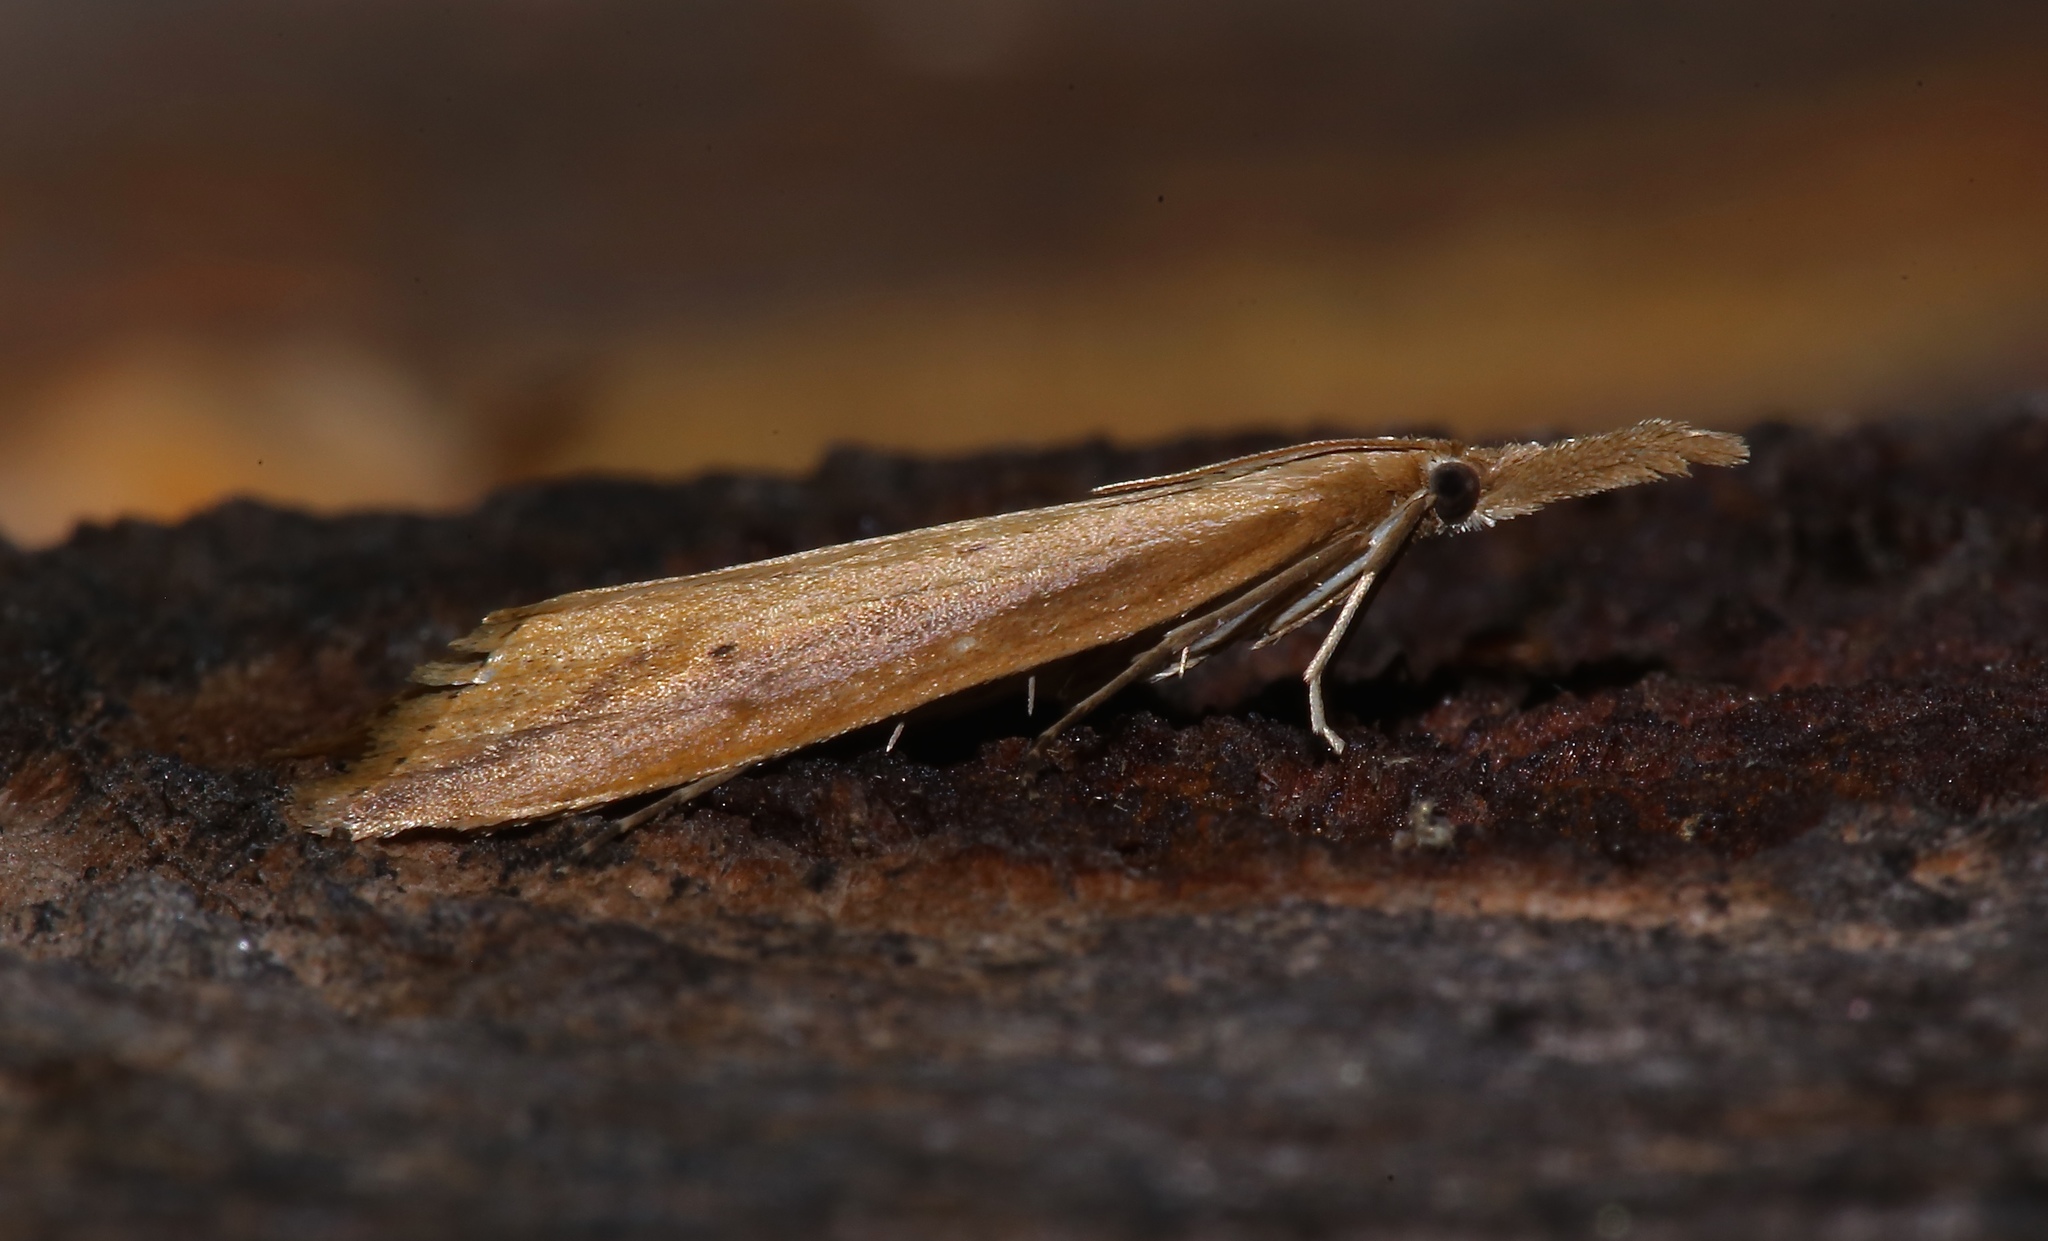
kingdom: Animalia
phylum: Arthropoda
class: Insecta
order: Lepidoptera
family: Crambidae
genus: Donacaula
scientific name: Donacaula melinellus
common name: Delightful donacaula moth
